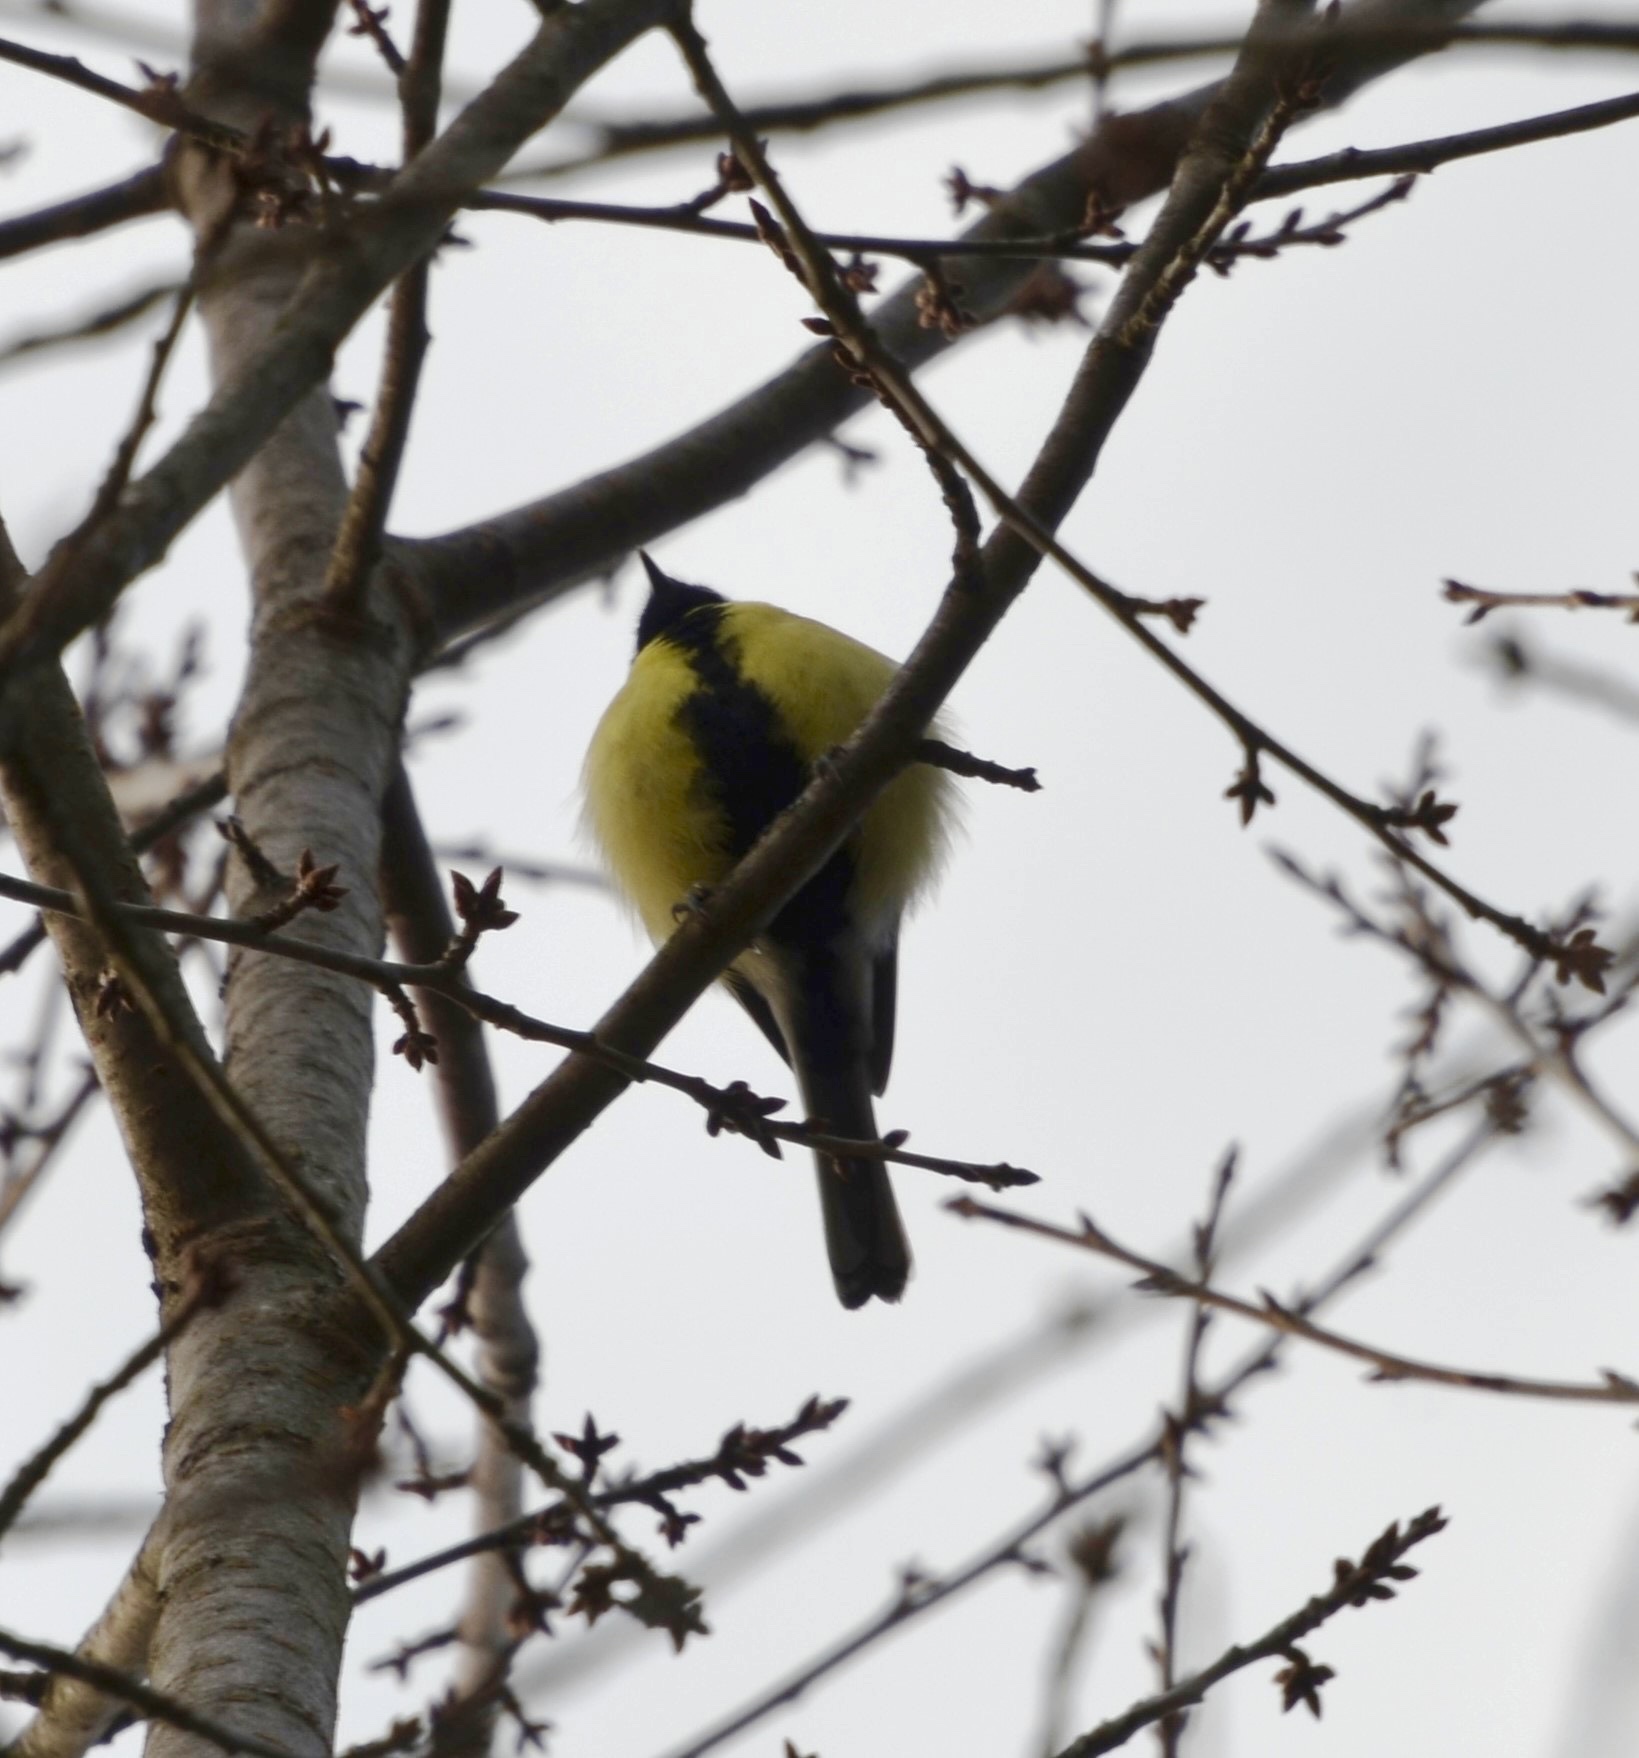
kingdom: Animalia
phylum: Chordata
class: Aves
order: Passeriformes
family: Paridae
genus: Parus
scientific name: Parus major
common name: Great tit
